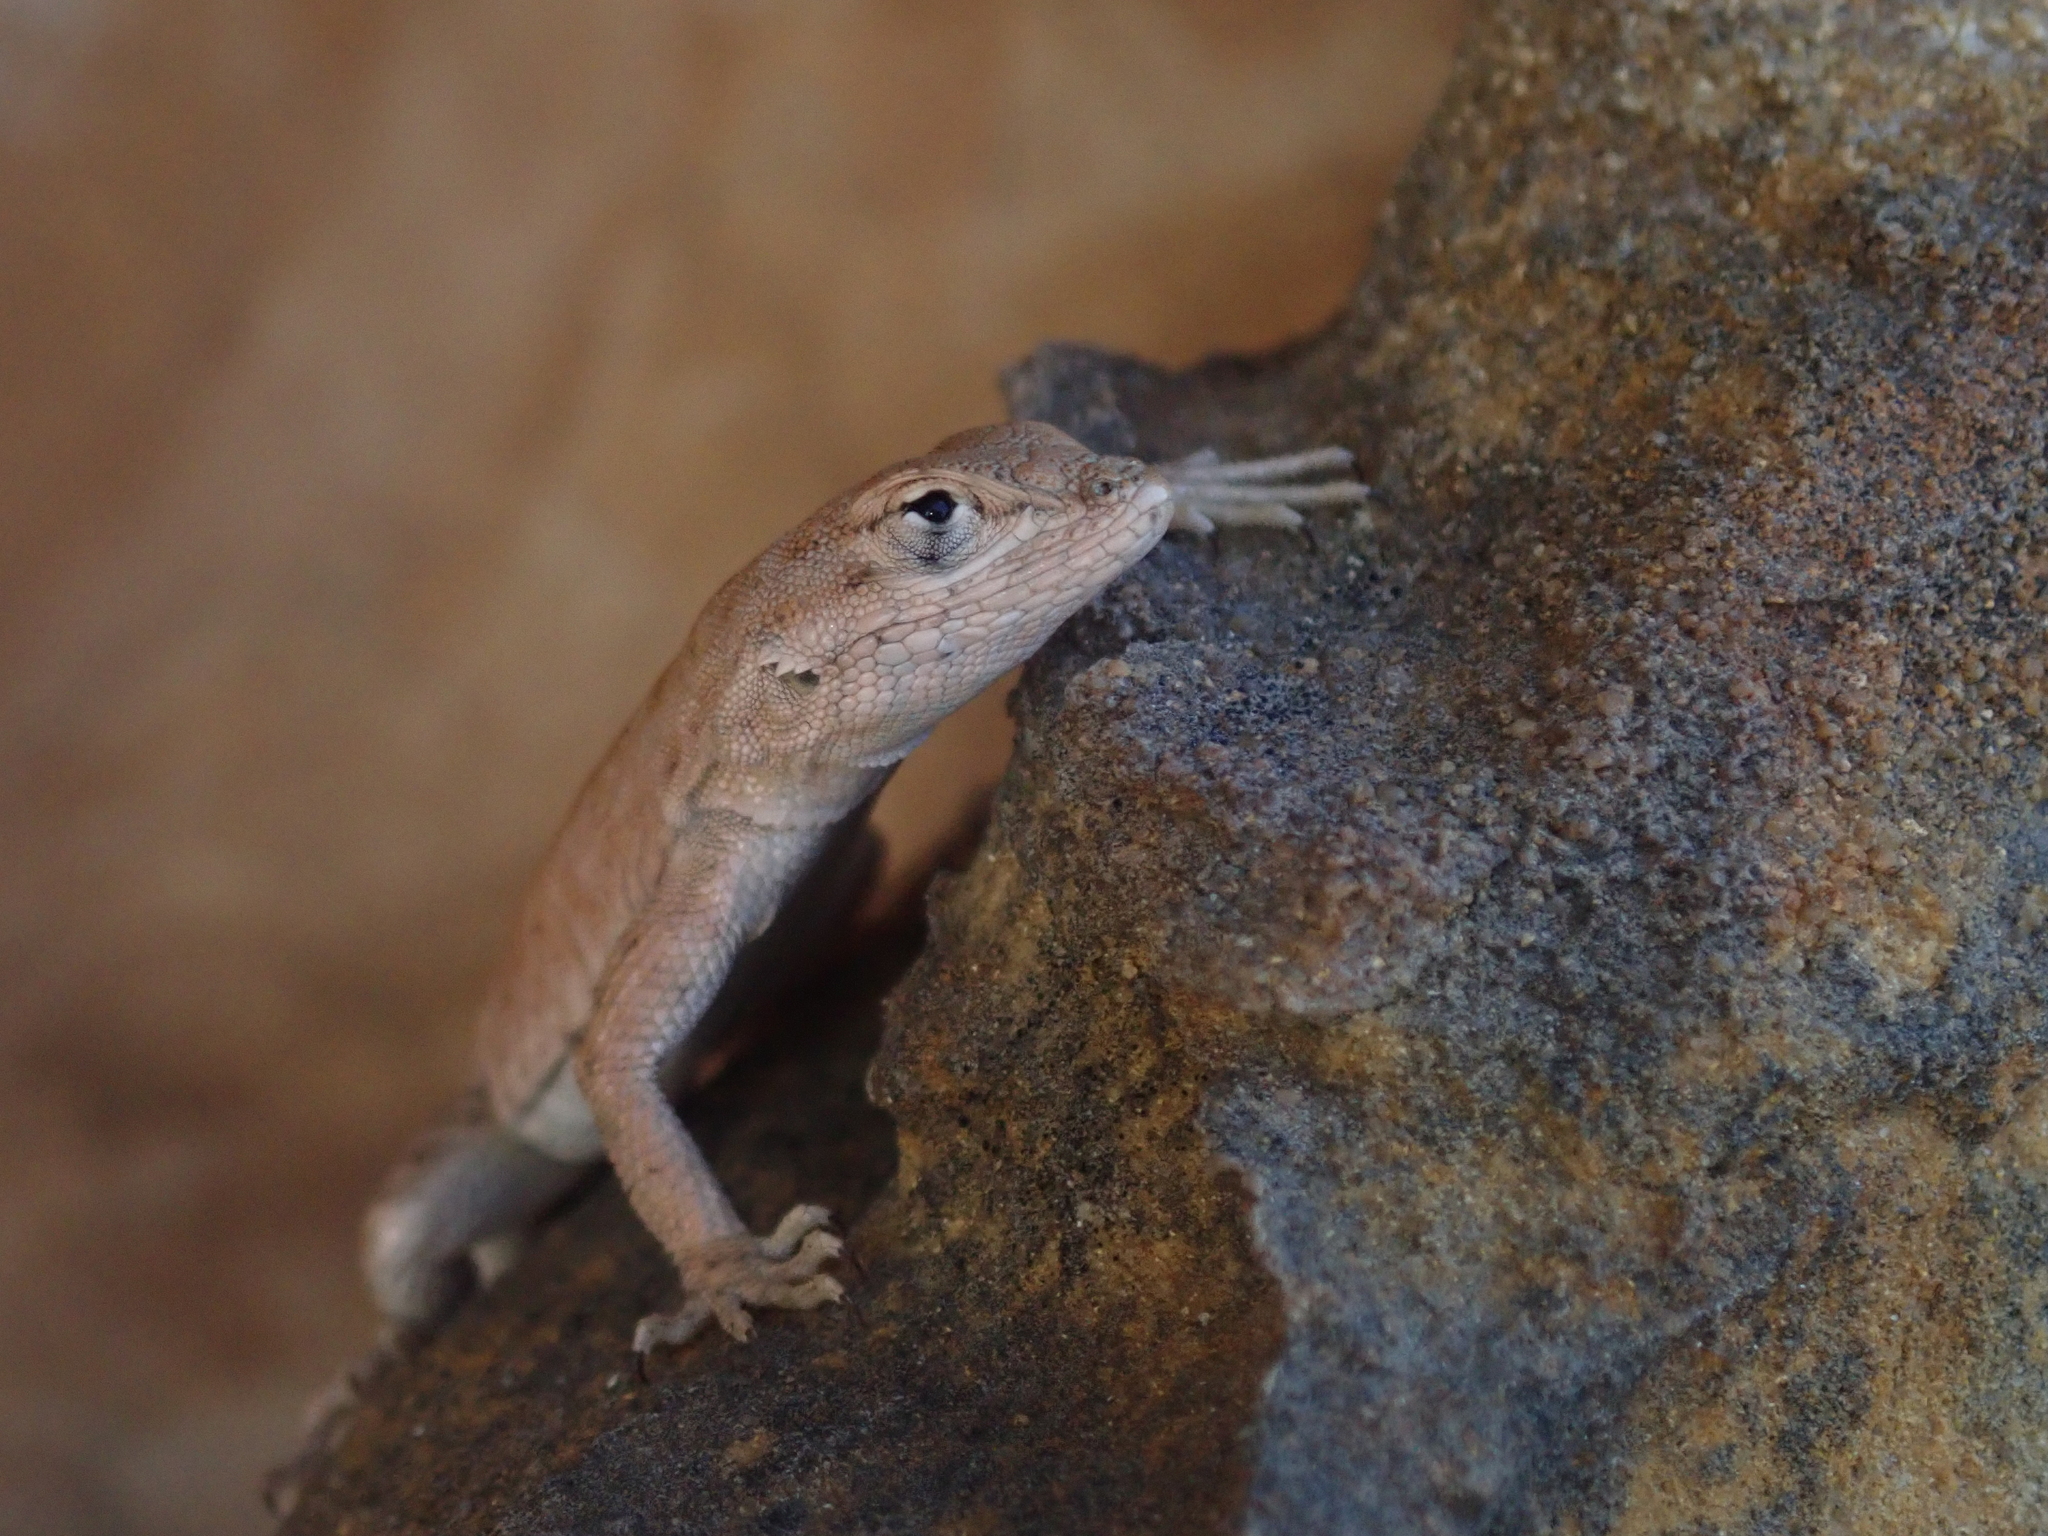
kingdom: Animalia
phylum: Chordata
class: Squamata
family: Phrynosomatidae
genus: Uta
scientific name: Uta stansburiana
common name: Side-blotched lizard
